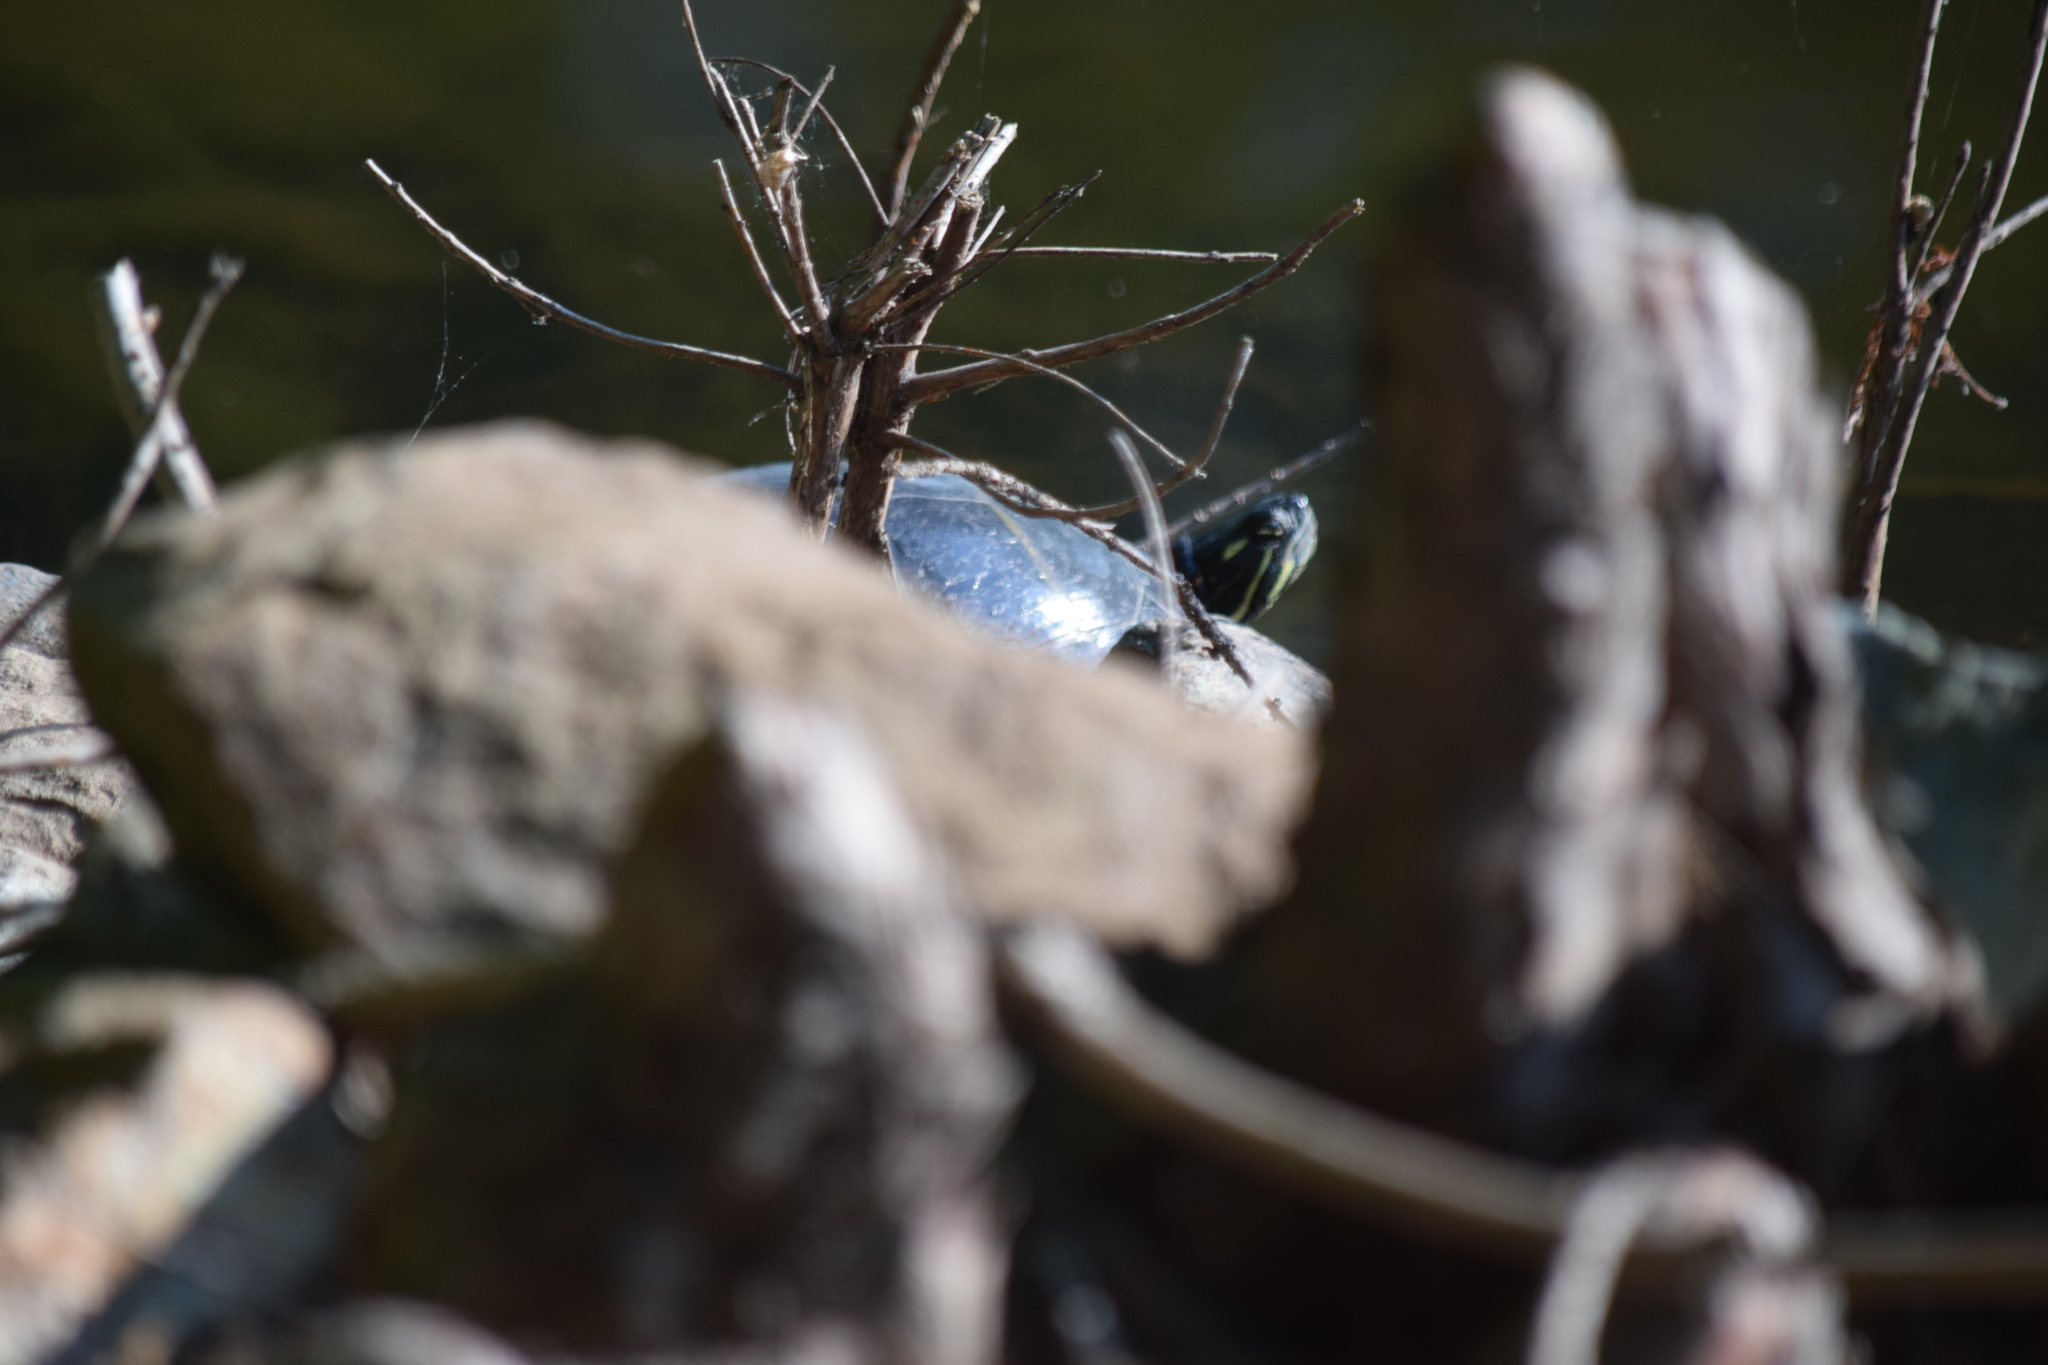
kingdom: Animalia
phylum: Chordata
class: Testudines
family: Emydidae
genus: Chrysemys
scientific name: Chrysemys picta
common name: Painted turtle
